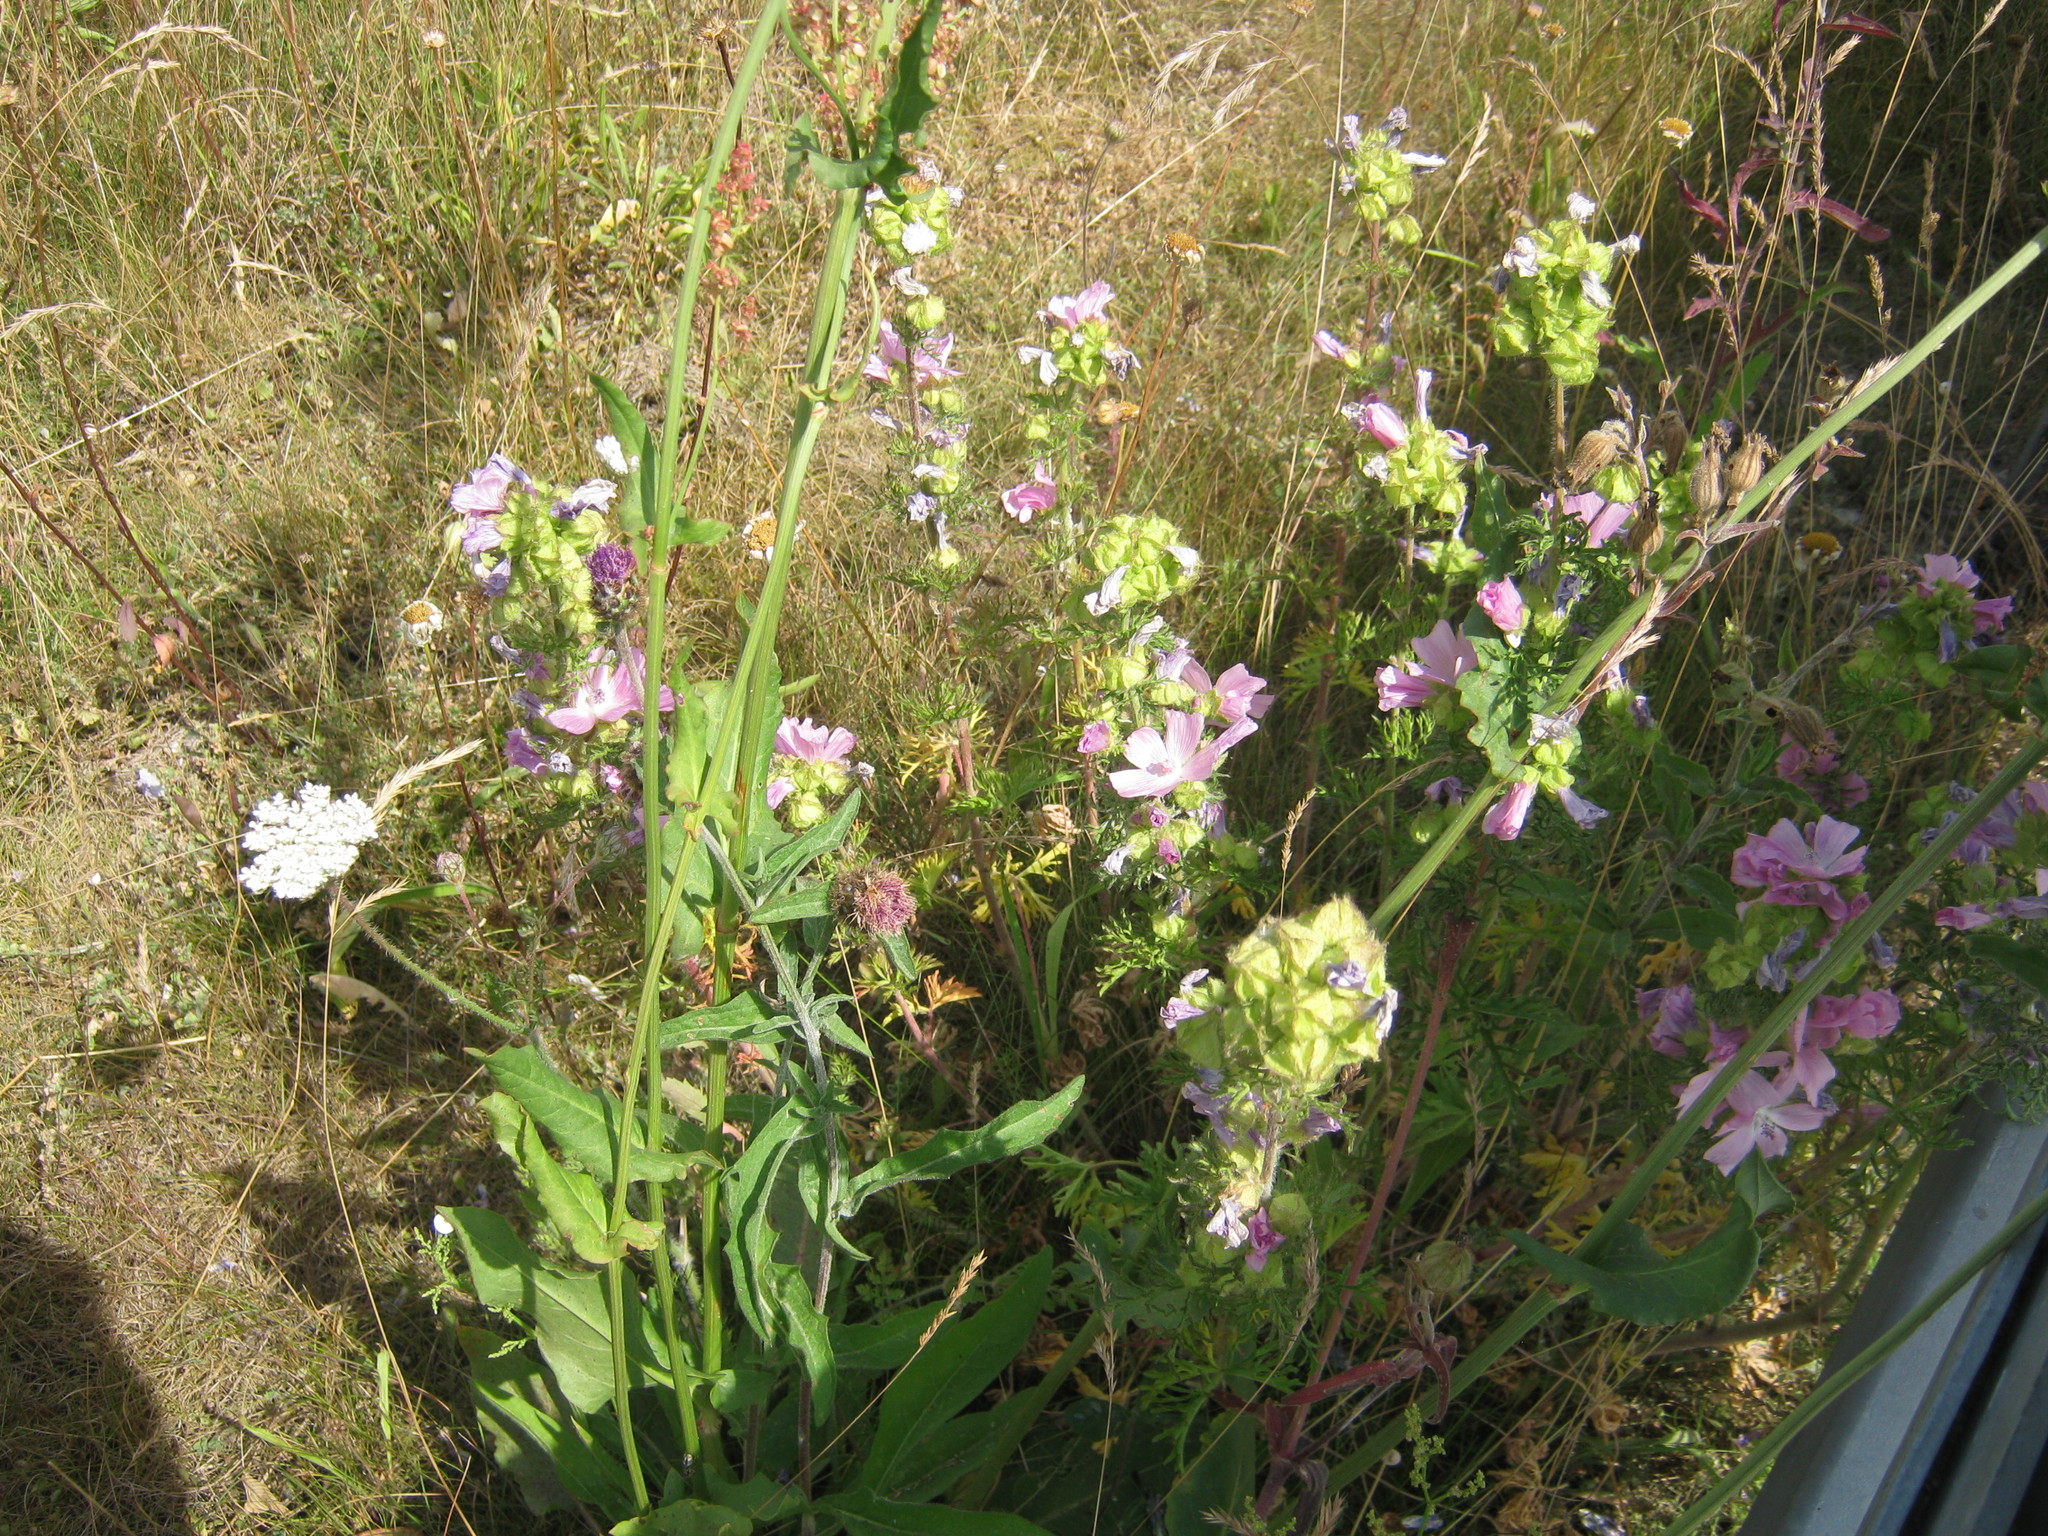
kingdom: Plantae
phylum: Tracheophyta
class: Magnoliopsida
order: Malvales
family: Malvaceae
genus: Malva
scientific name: Malva moschata
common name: Musk mallow
